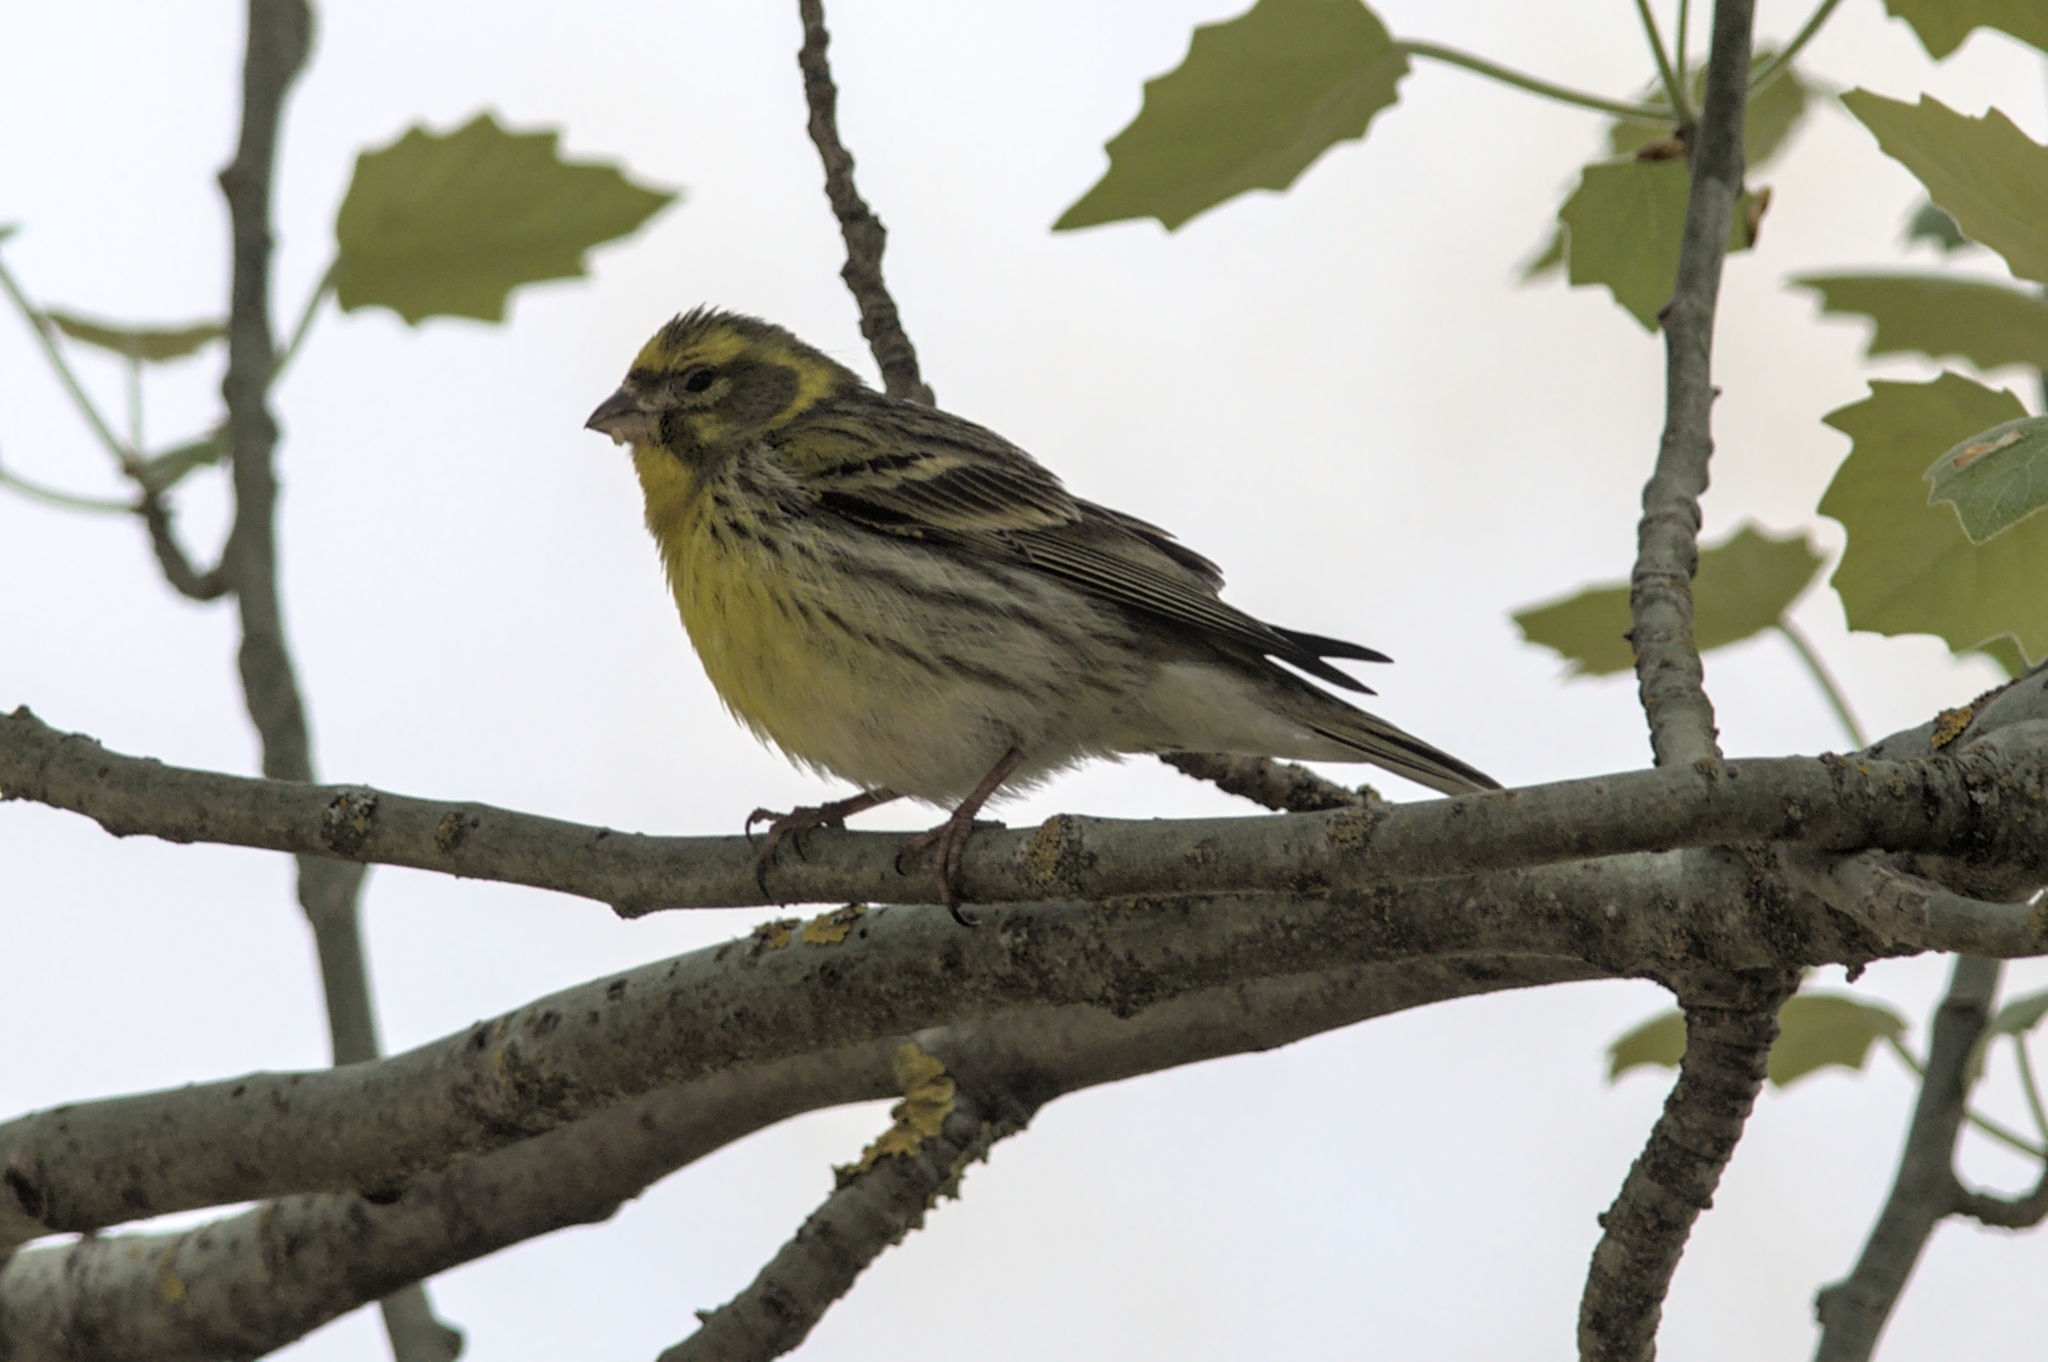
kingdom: Animalia
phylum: Chordata
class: Aves
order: Passeriformes
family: Fringillidae
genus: Serinus
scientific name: Serinus serinus
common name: European serin
